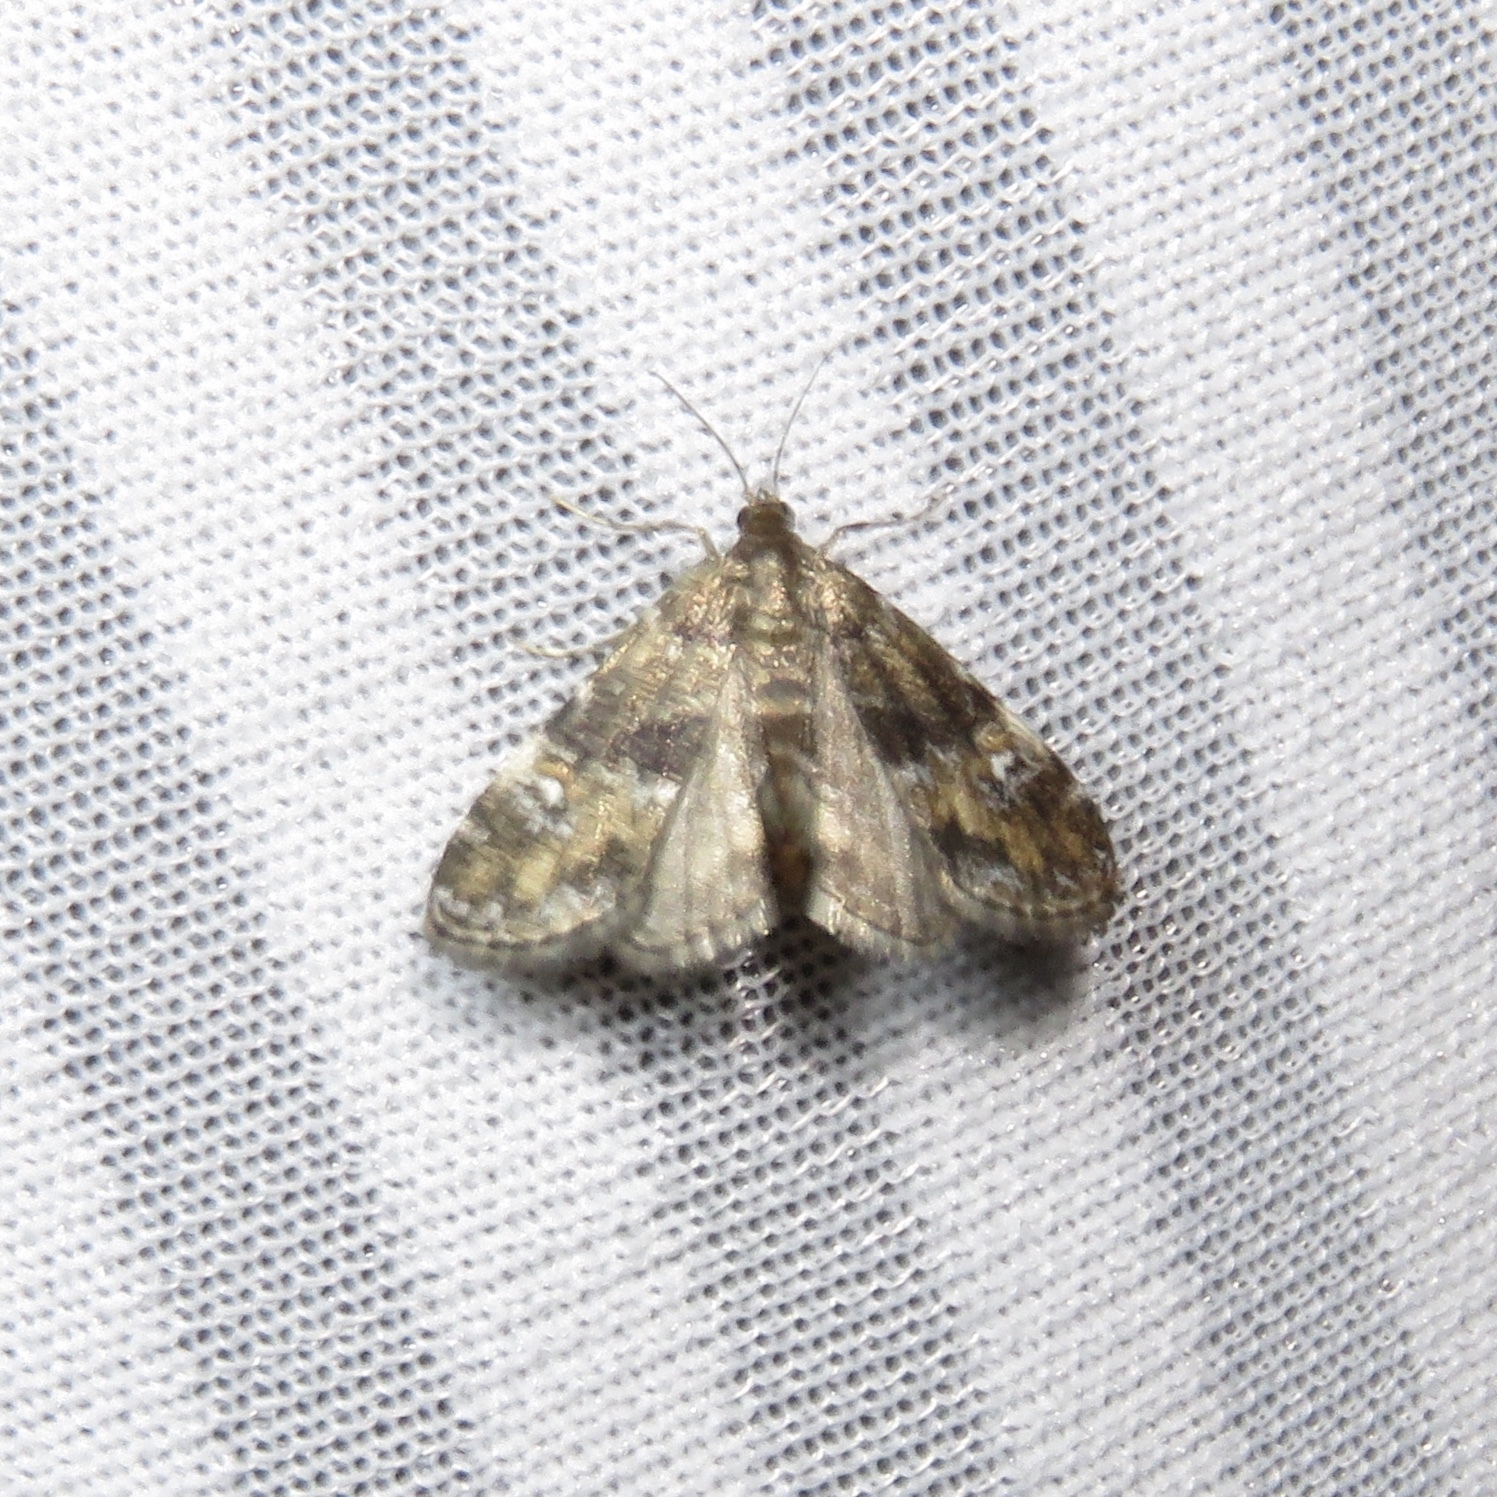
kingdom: Animalia
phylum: Arthropoda
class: Insecta
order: Lepidoptera
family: Crambidae
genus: Elophila
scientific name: Elophila obliteralis
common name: Waterlily leafcutter moth
